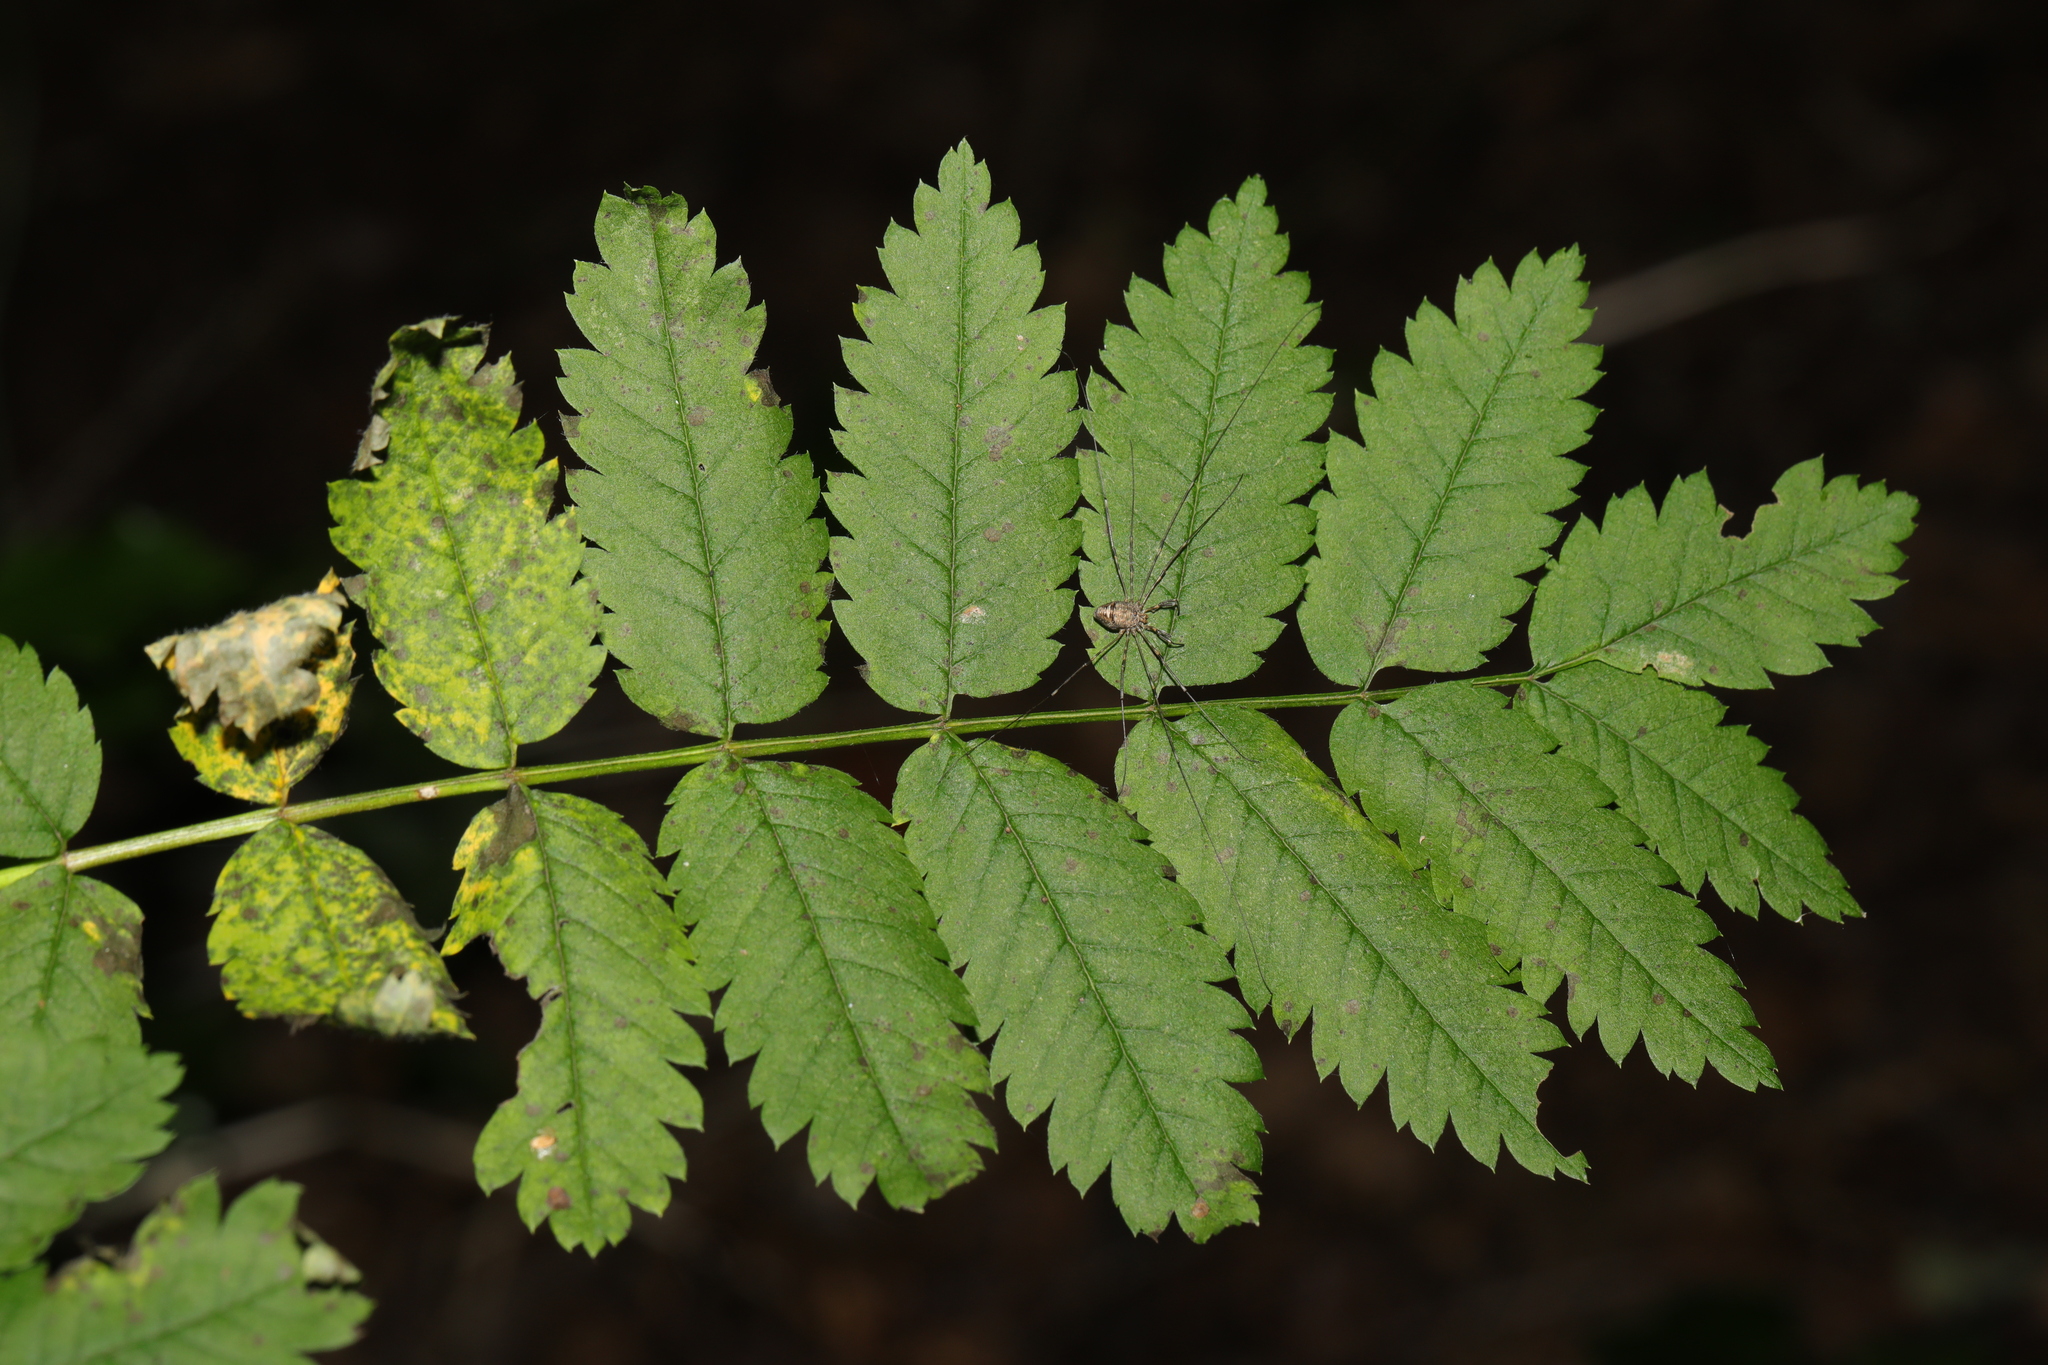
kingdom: Plantae
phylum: Tracheophyta
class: Magnoliopsida
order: Rosales
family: Rosaceae
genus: Sorbus
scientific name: Sorbus aucuparia
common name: Rowan
